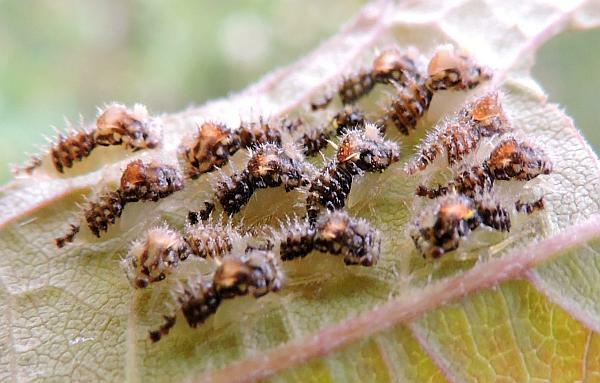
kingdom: Animalia
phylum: Arthropoda
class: Insecta
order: Hemiptera
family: Membracidae
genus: Entylia
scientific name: Entylia carinata
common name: Keeled treehopper
